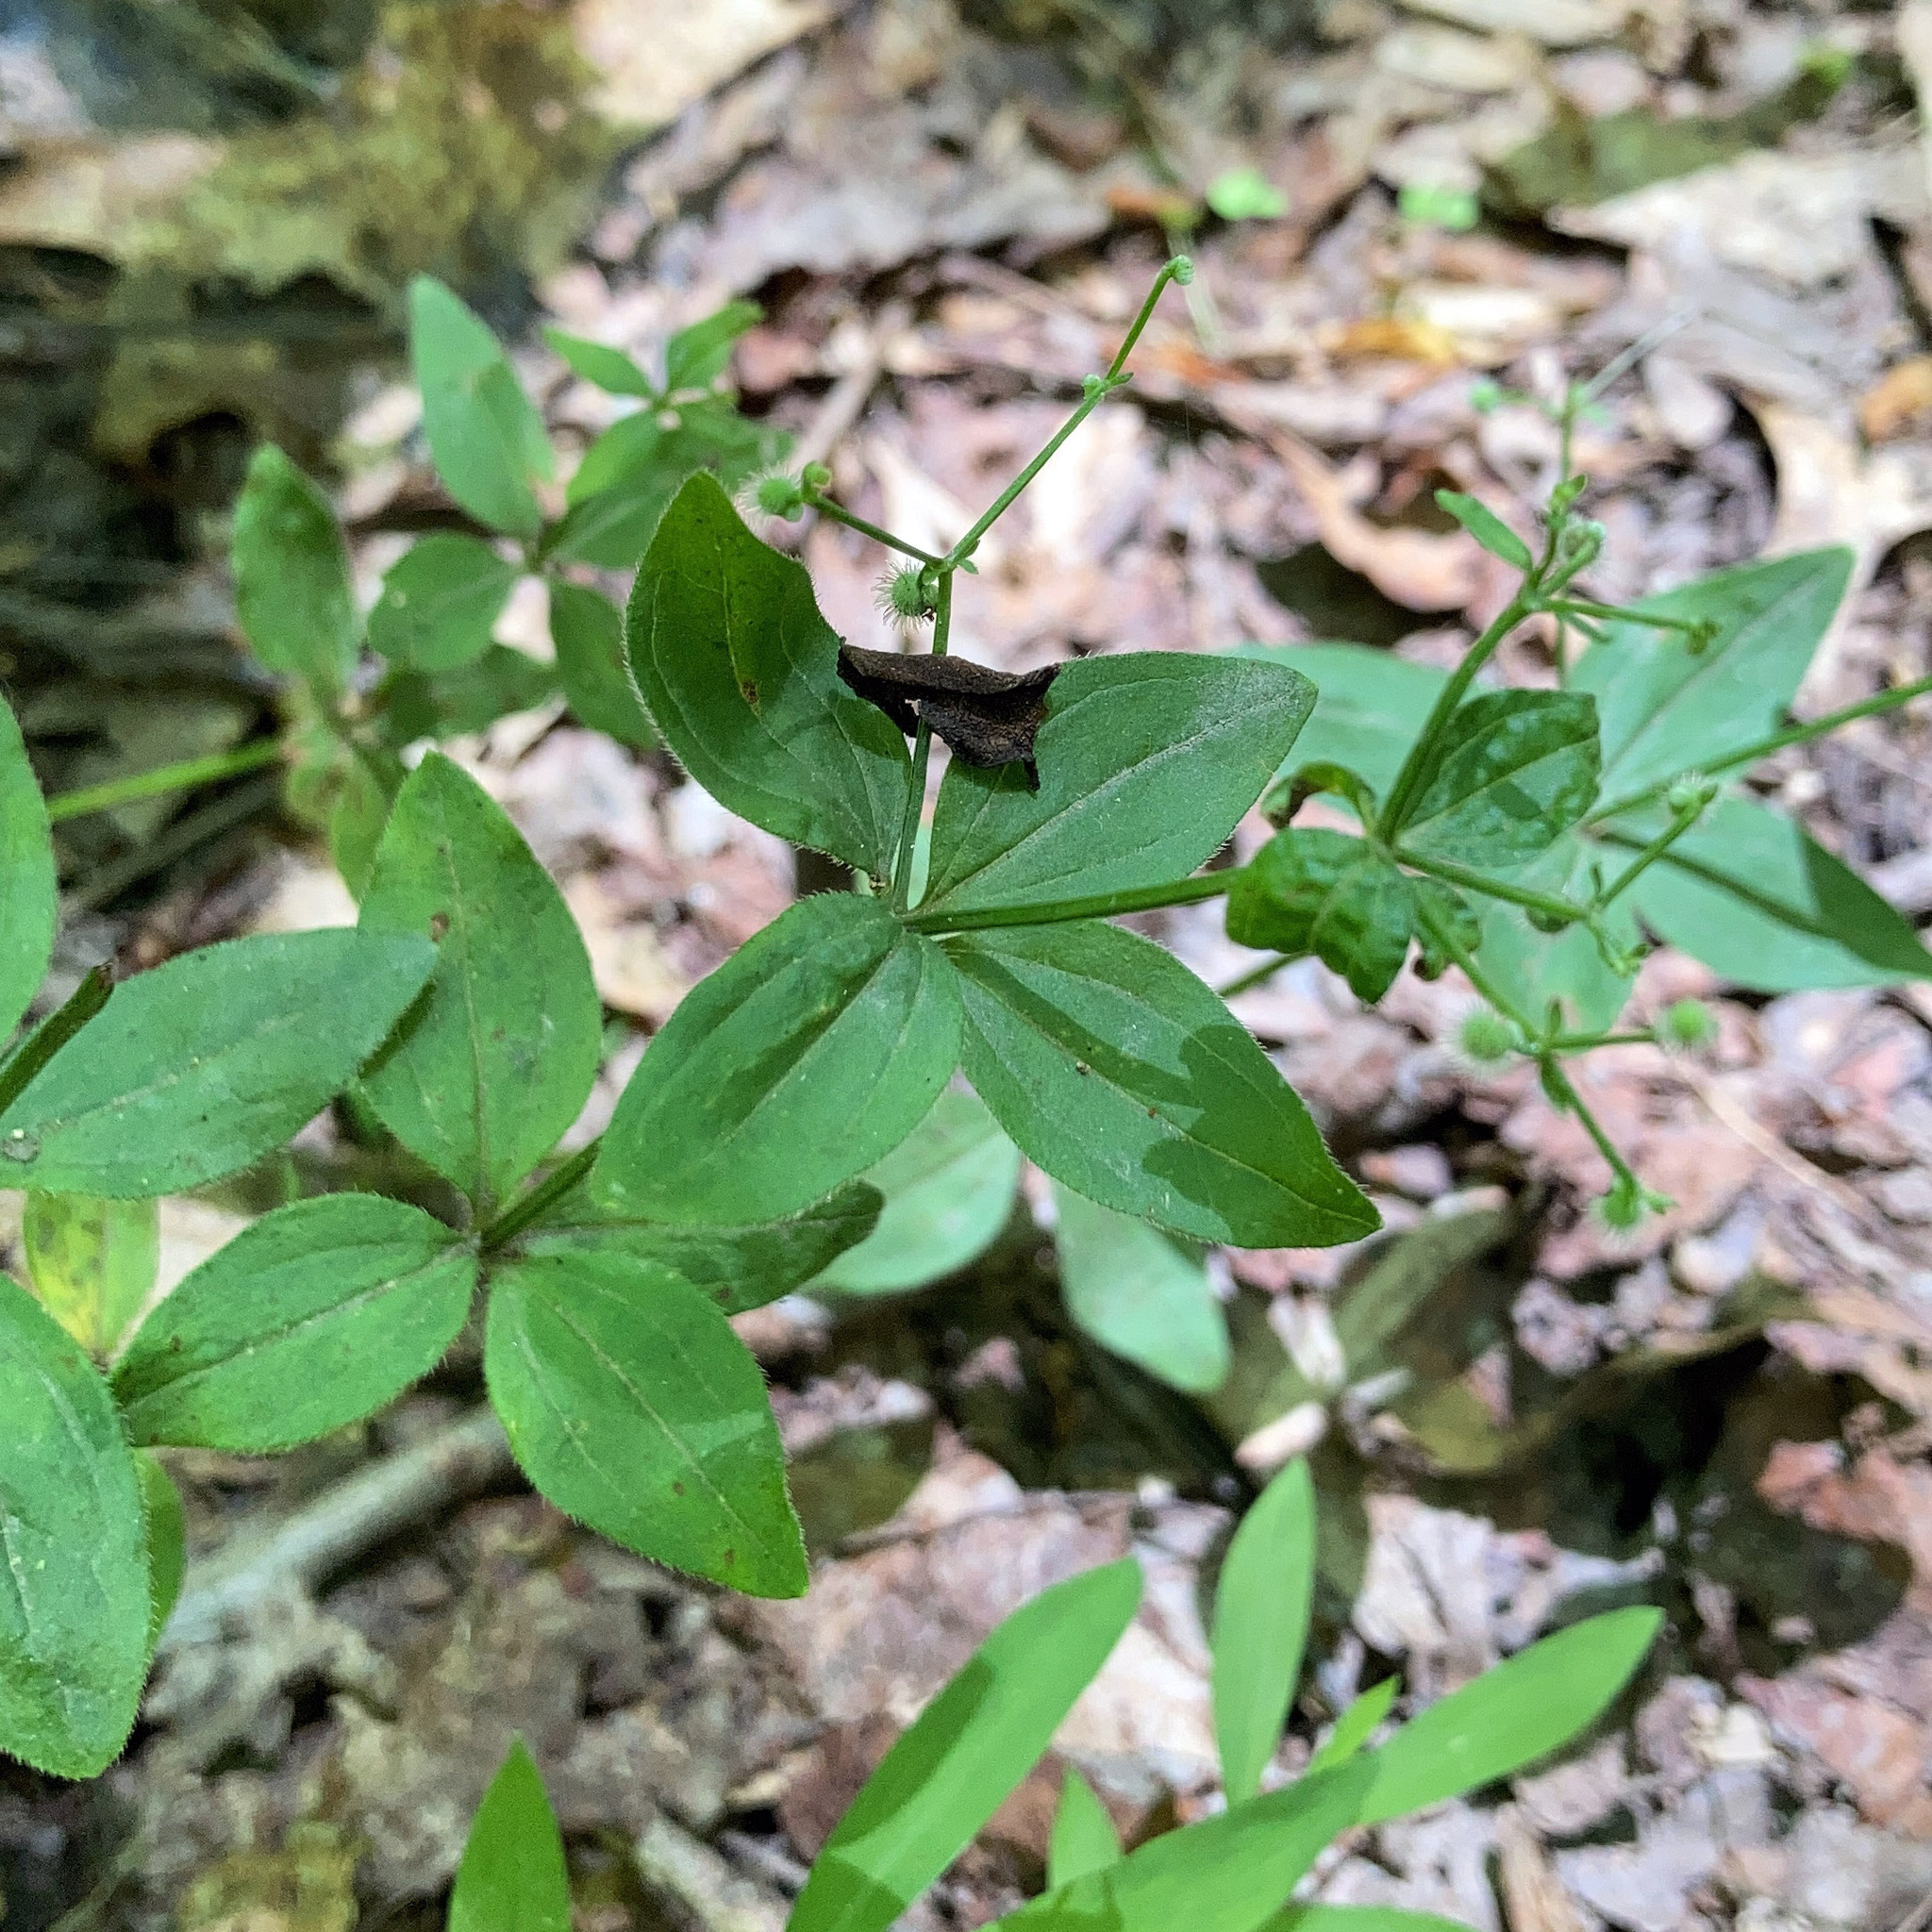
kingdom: Plantae
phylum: Tracheophyta
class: Magnoliopsida
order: Gentianales
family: Rubiaceae
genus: Galium
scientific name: Galium circaezans
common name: Forest bedstraw
